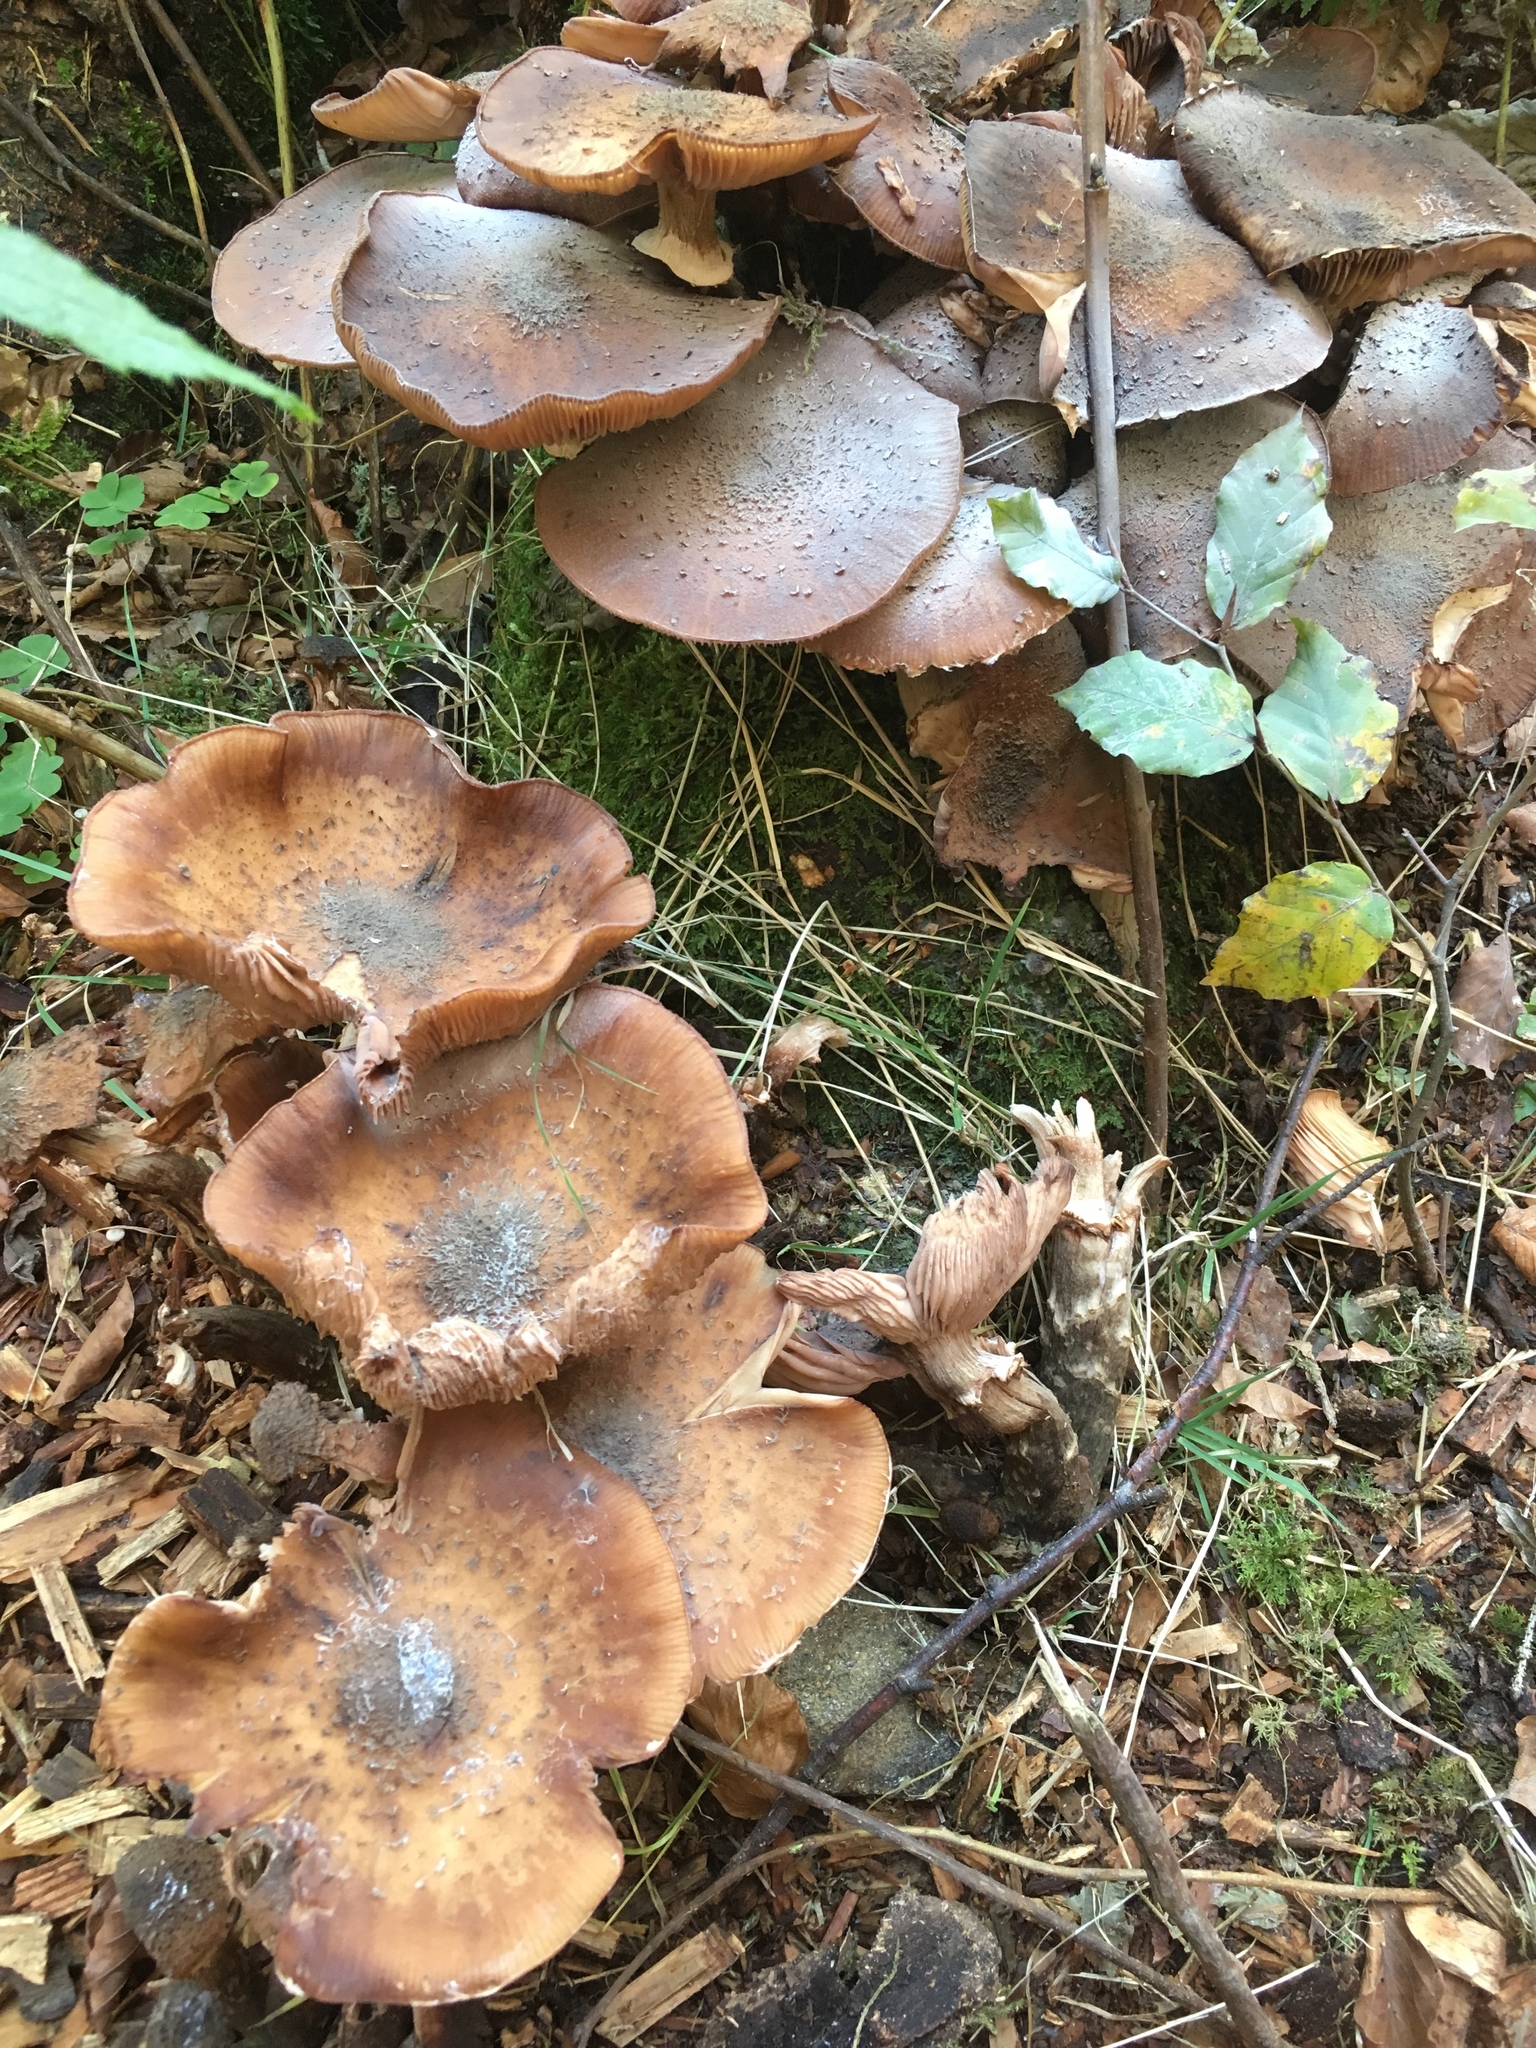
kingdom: Fungi
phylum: Basidiomycota
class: Agaricomycetes
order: Agaricales
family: Physalacriaceae
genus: Armillaria
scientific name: Armillaria mellea
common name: Honey fungus
